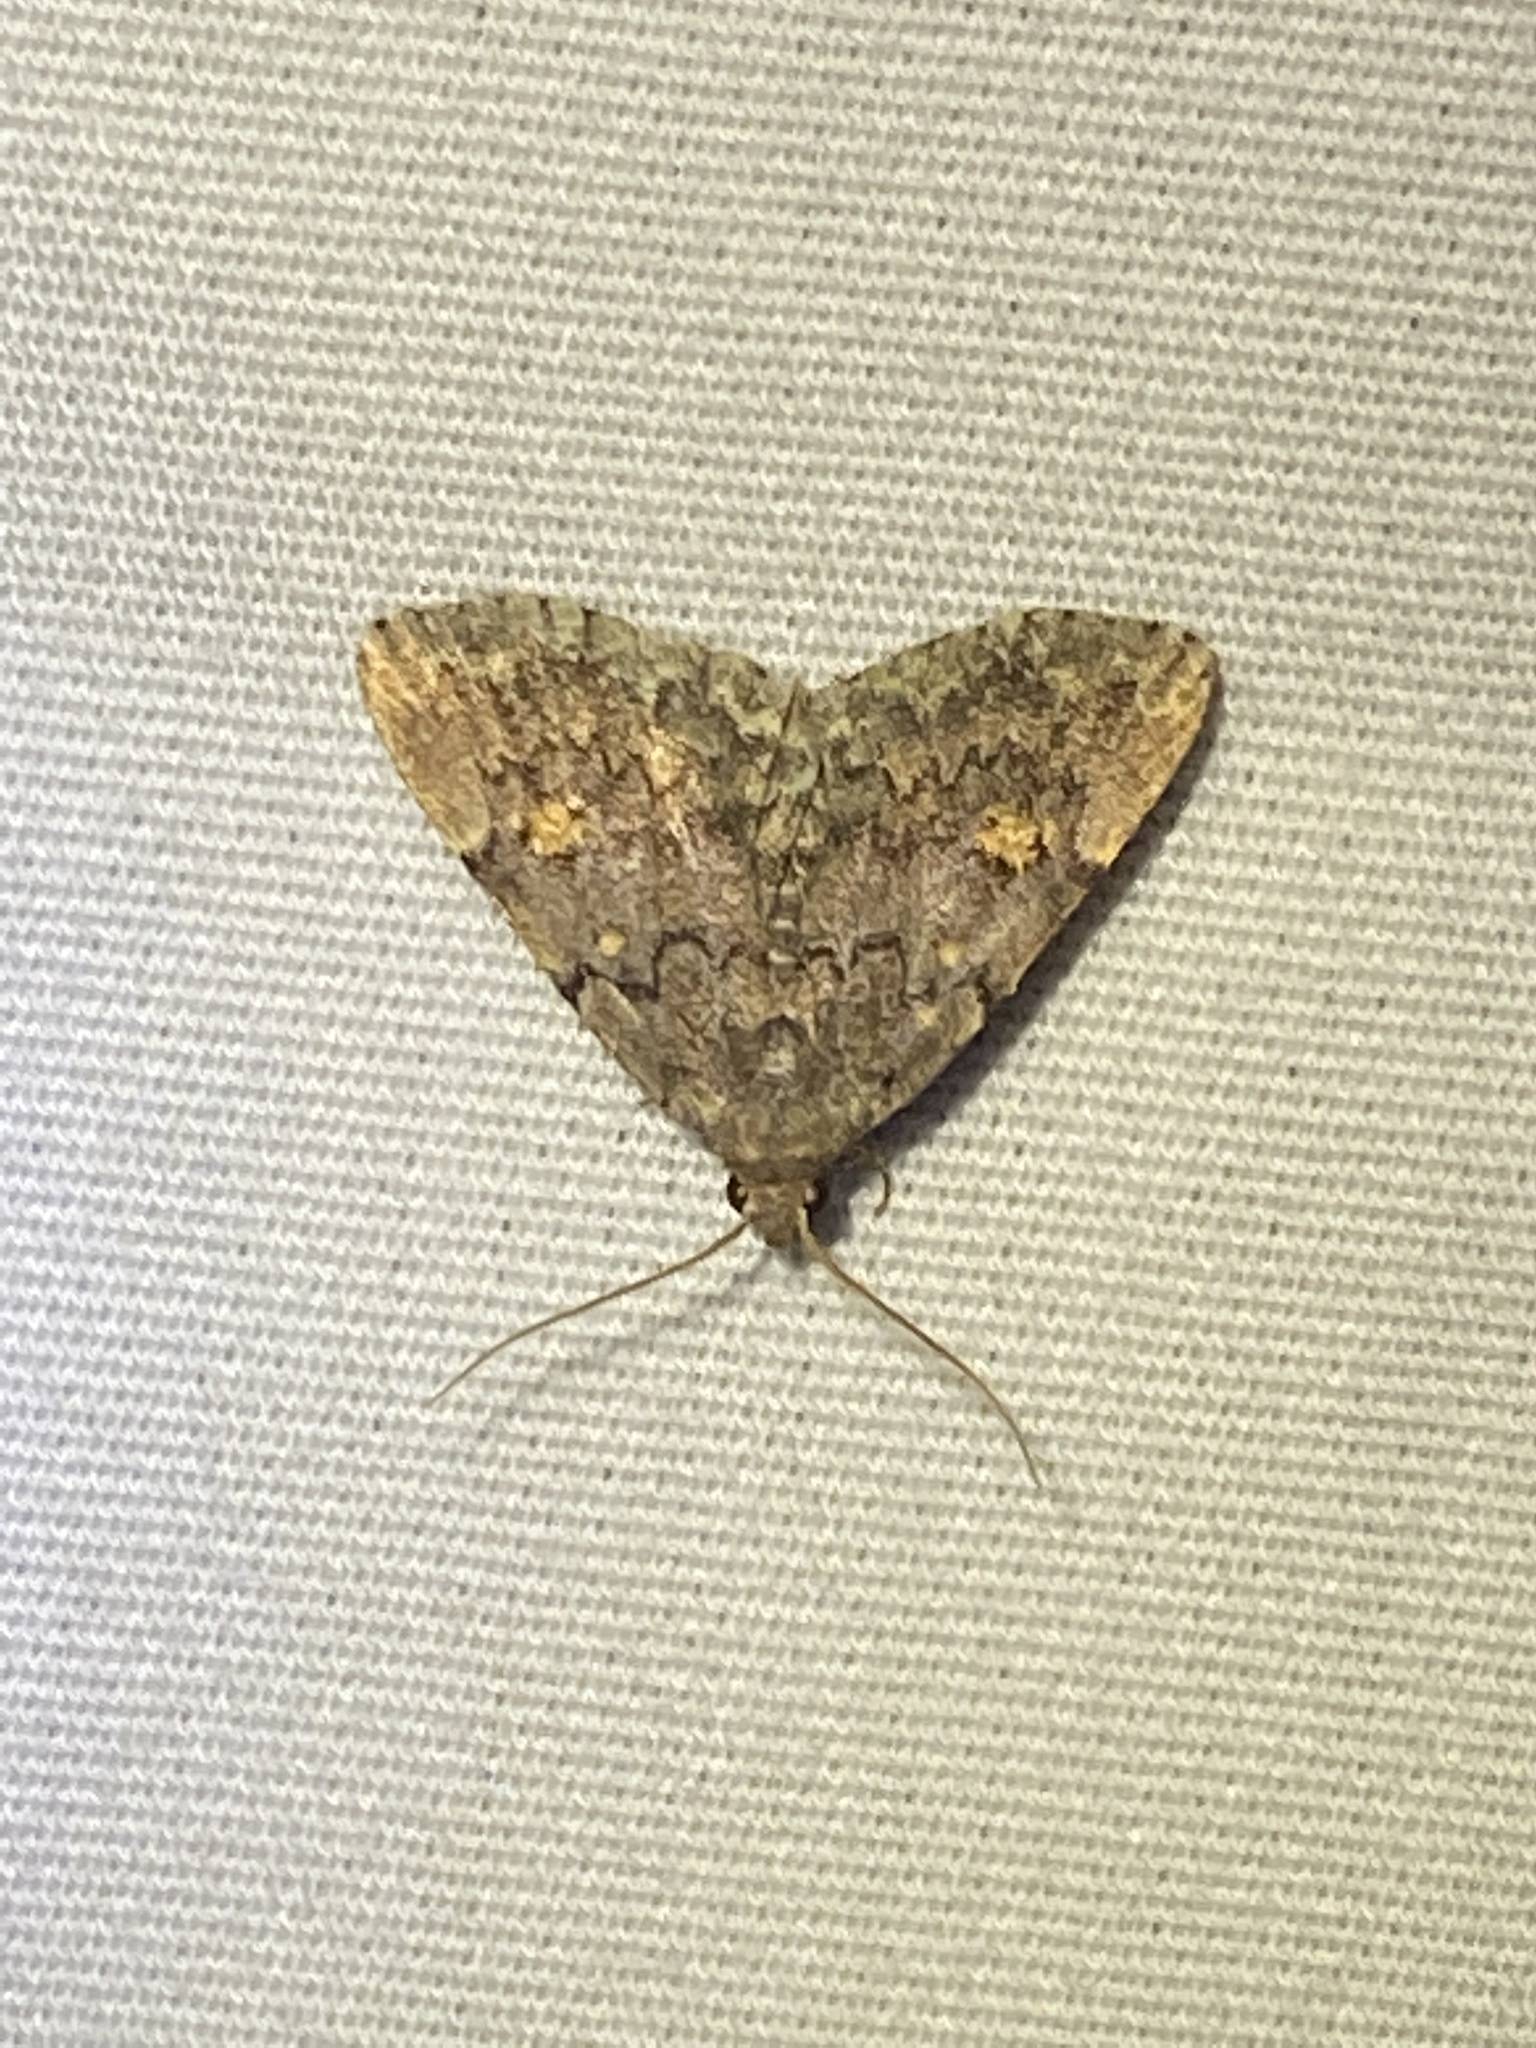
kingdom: Animalia
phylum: Arthropoda
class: Insecta
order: Lepidoptera
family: Erebidae
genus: Idia
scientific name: Idia aemula
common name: Common idia moth
